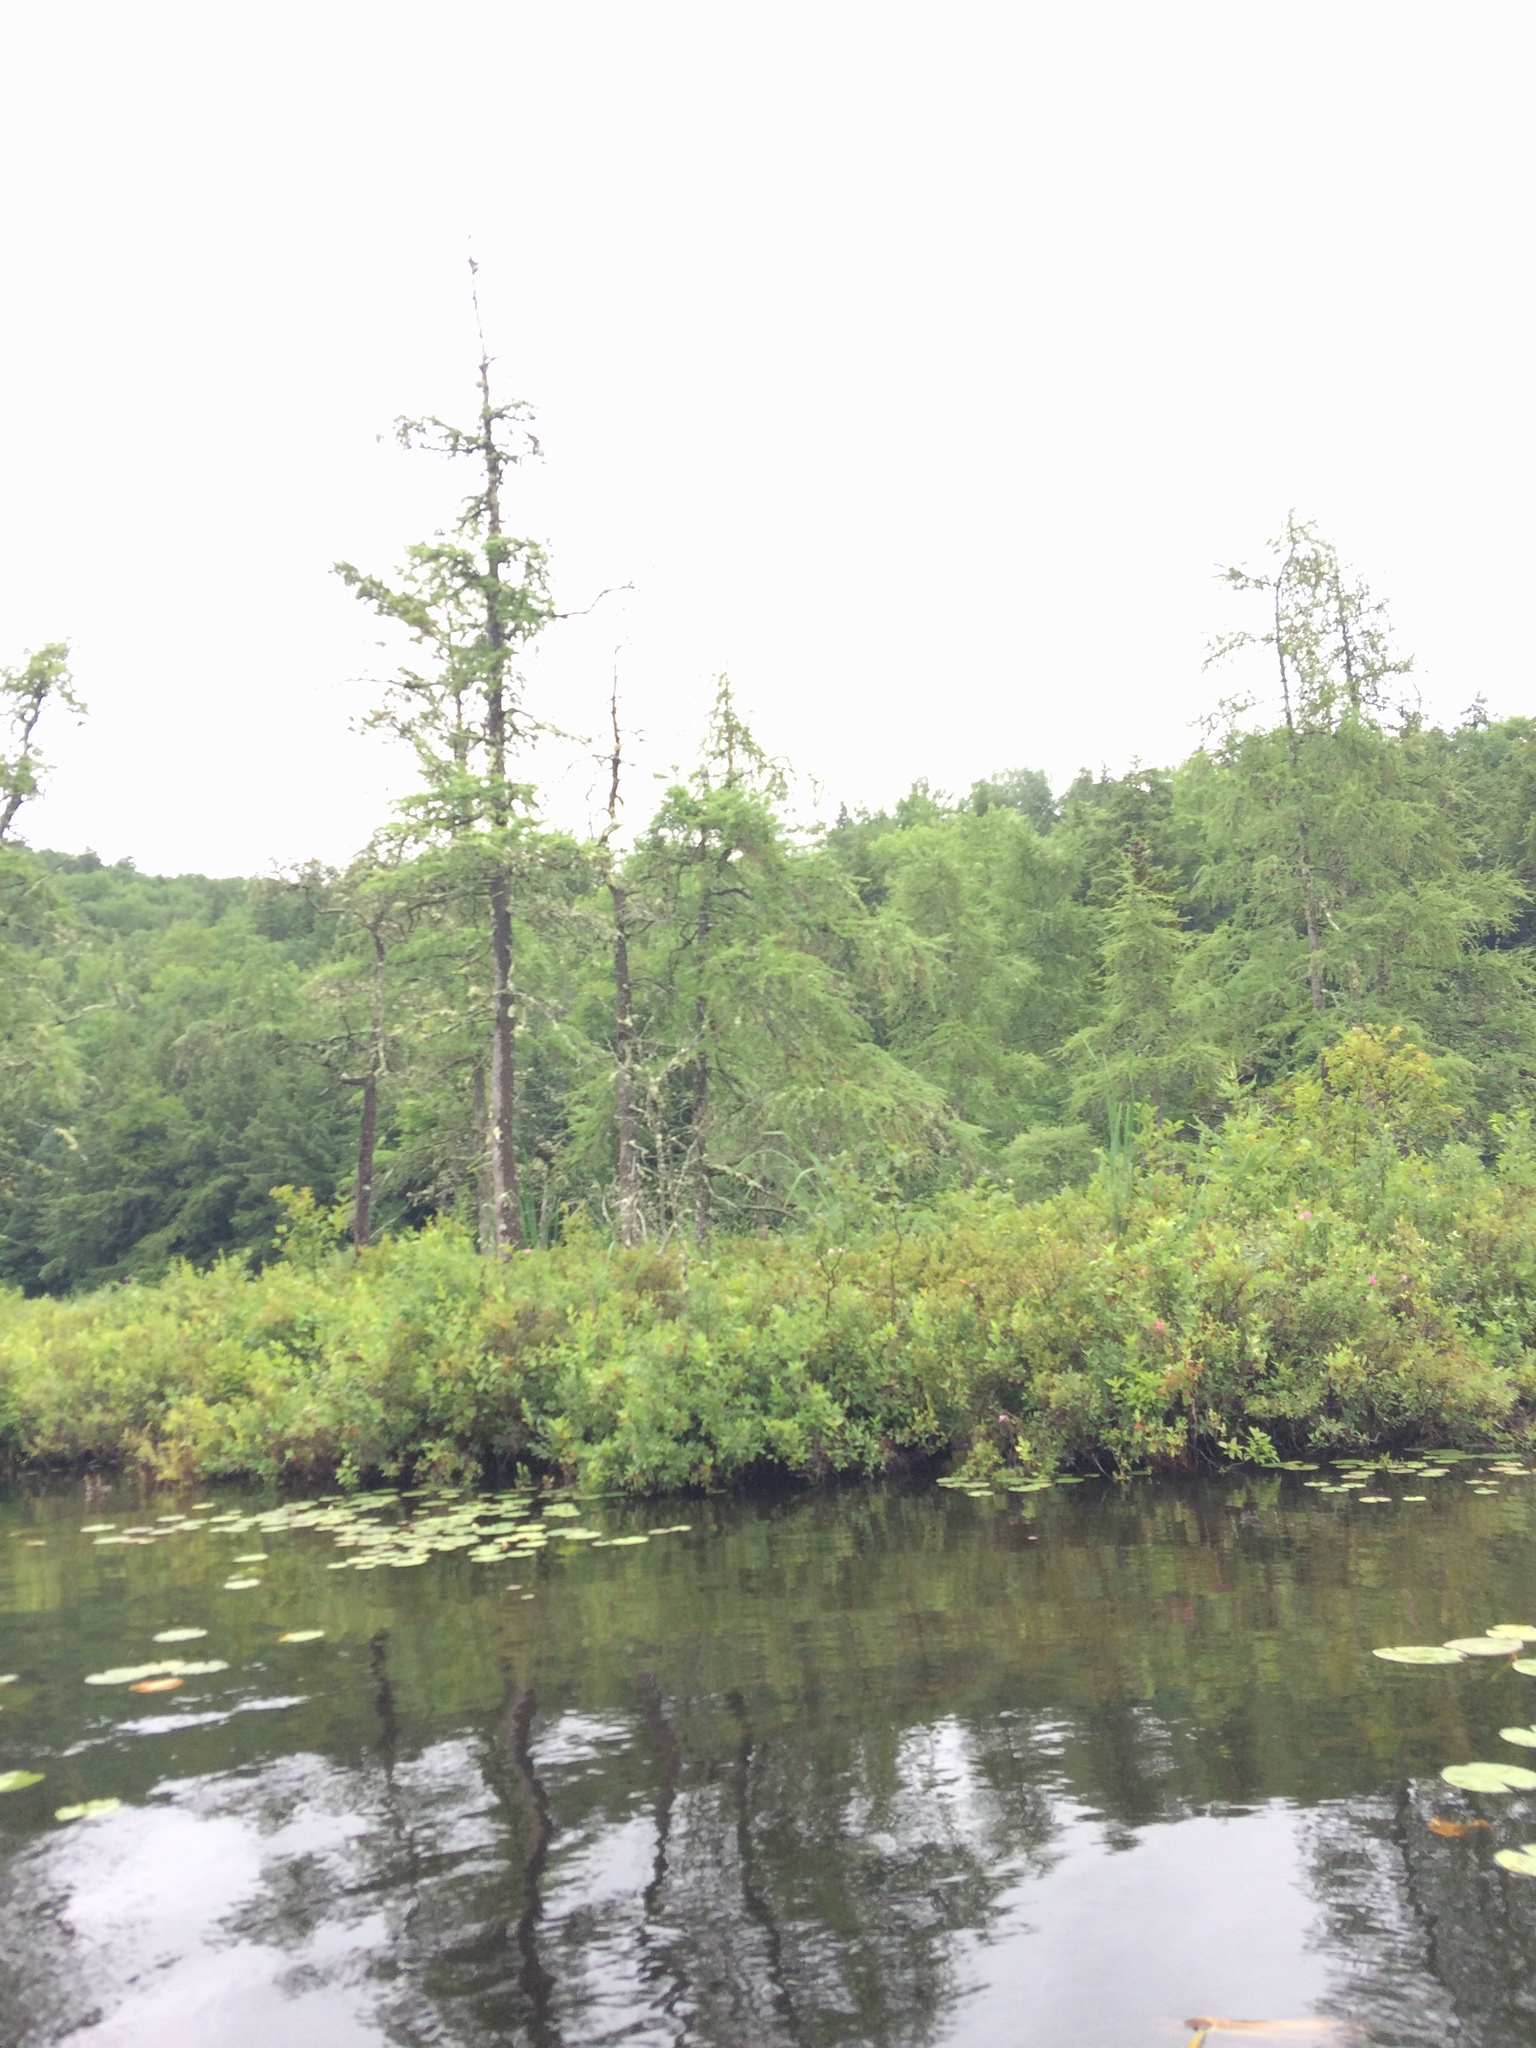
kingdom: Plantae
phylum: Tracheophyta
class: Pinopsida
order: Pinales
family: Pinaceae
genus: Larix
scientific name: Larix laricina
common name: American larch
